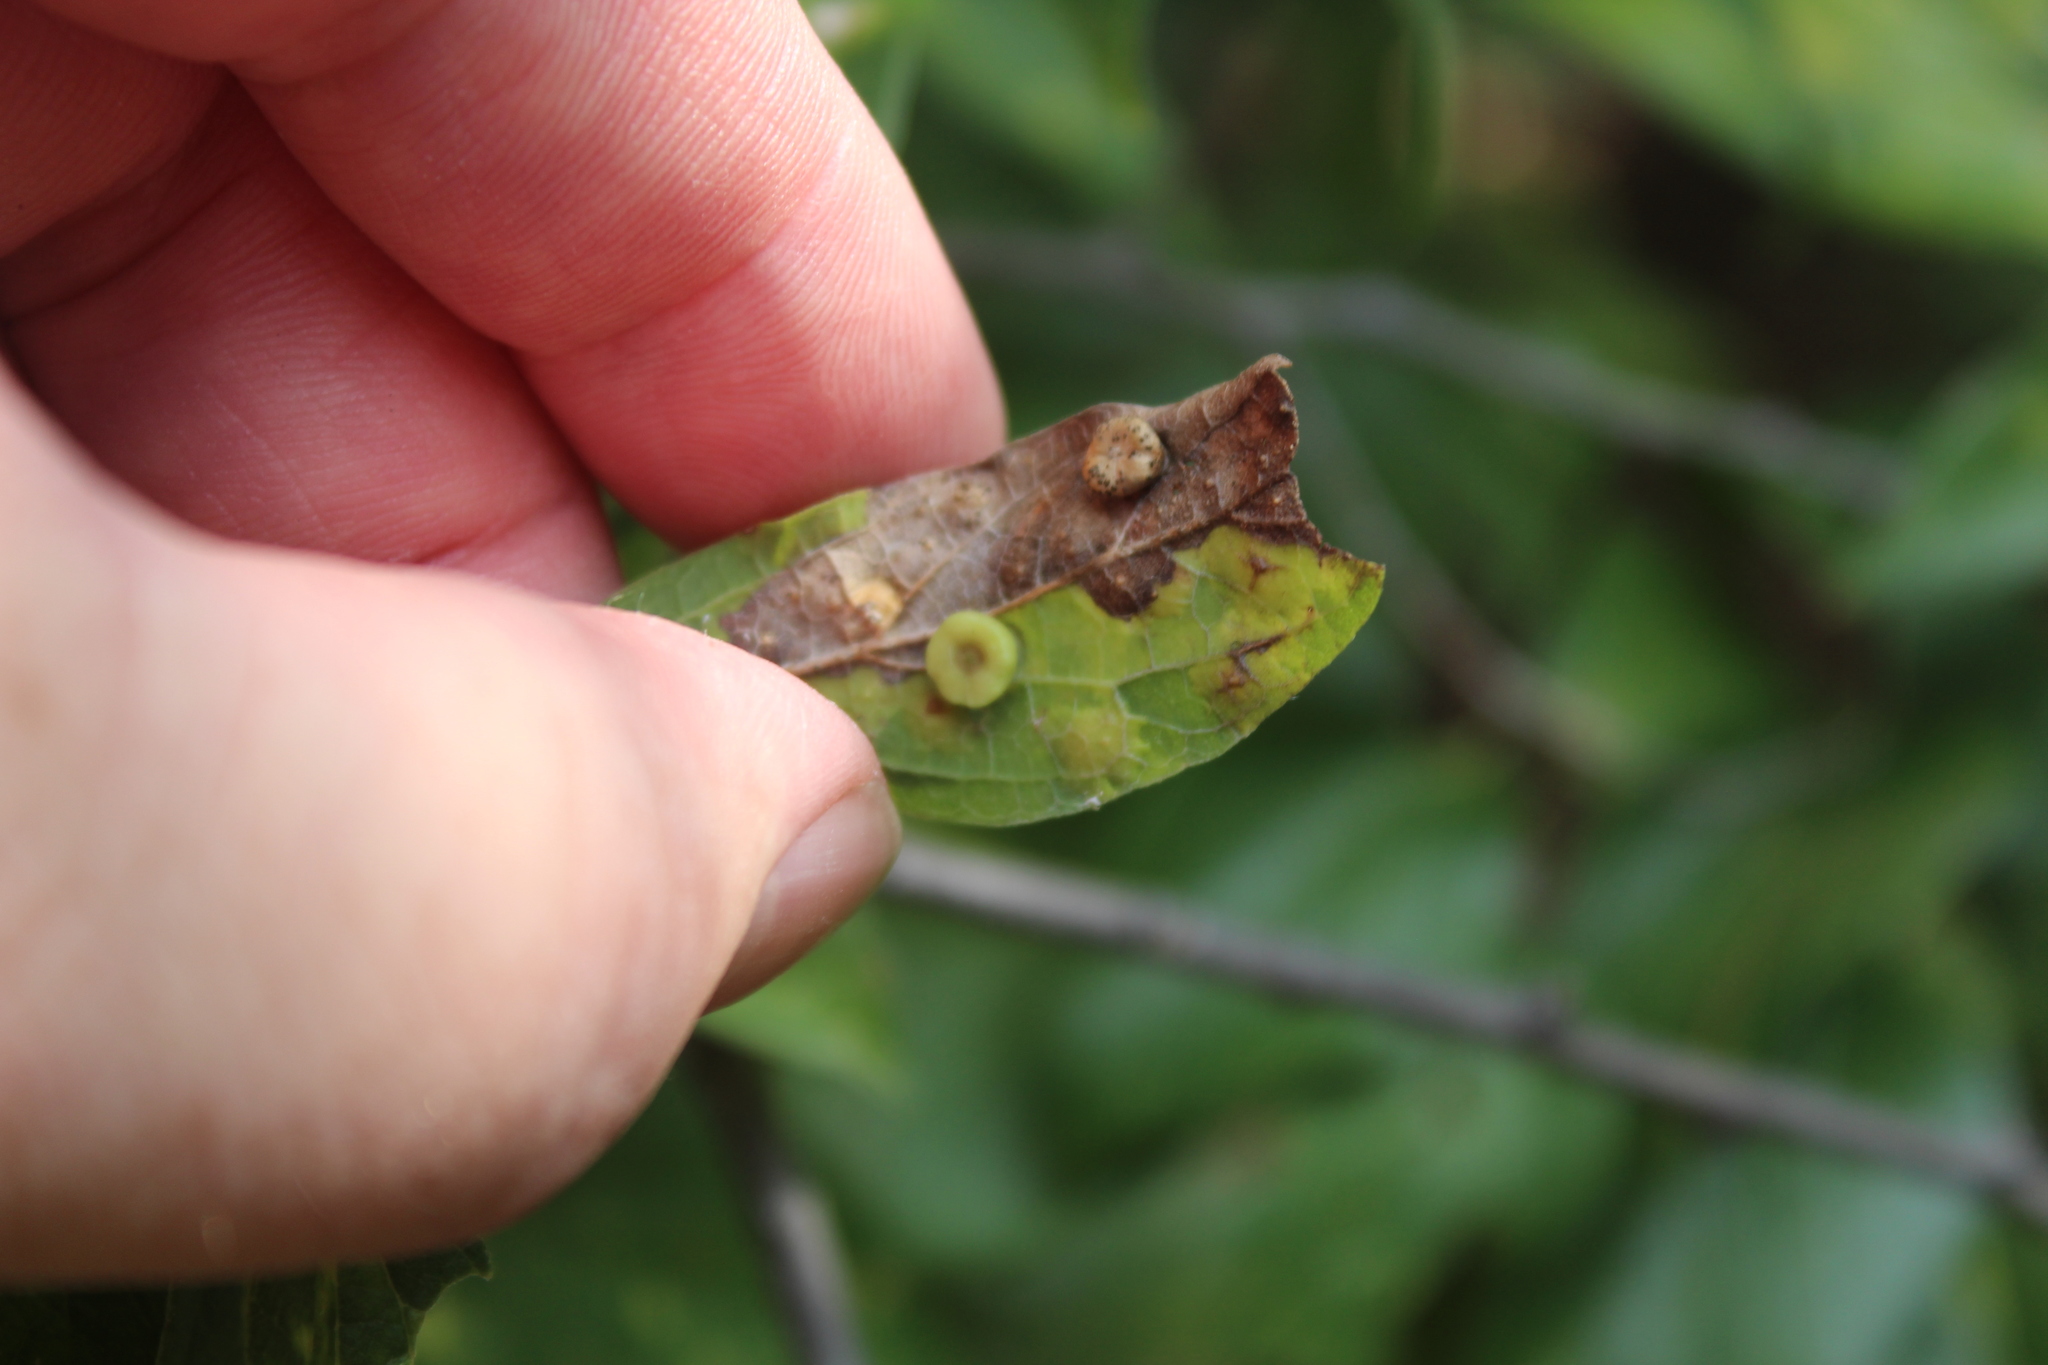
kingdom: Animalia
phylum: Arthropoda
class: Insecta
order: Hemiptera
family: Aphalaridae
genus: Pachypsylla
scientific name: Pachypsylla celtidismamma
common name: Hackberry nipplegall psyllid
